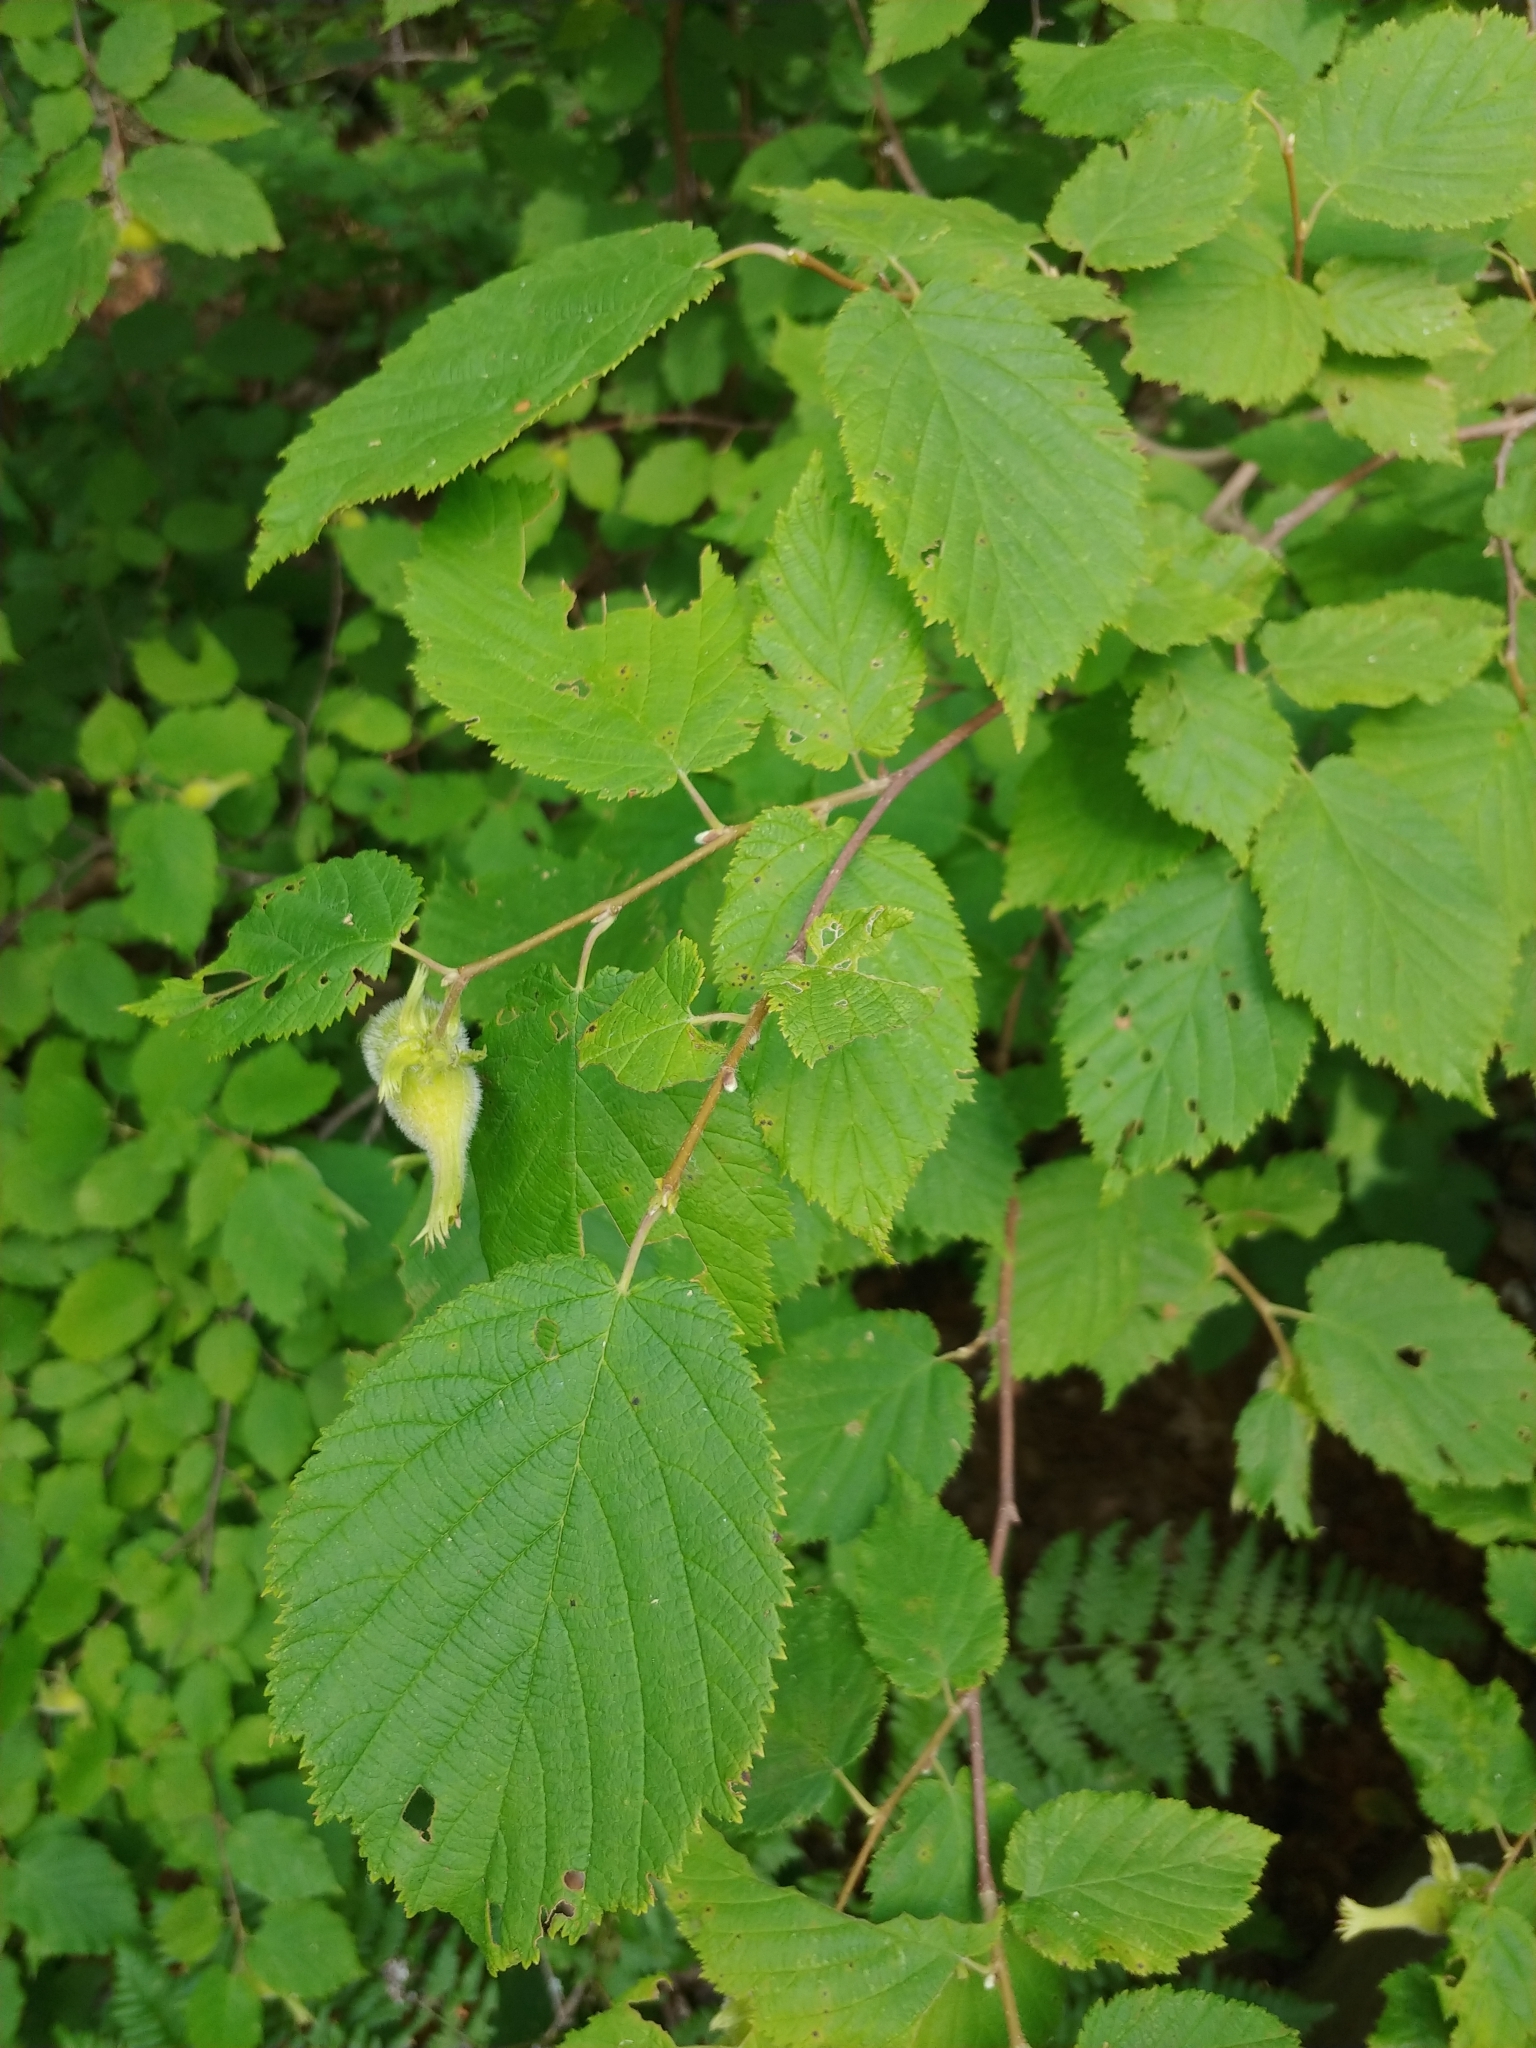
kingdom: Plantae
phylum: Tracheophyta
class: Magnoliopsida
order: Fagales
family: Betulaceae
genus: Corylus
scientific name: Corylus cornuta
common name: Beaked hazel
